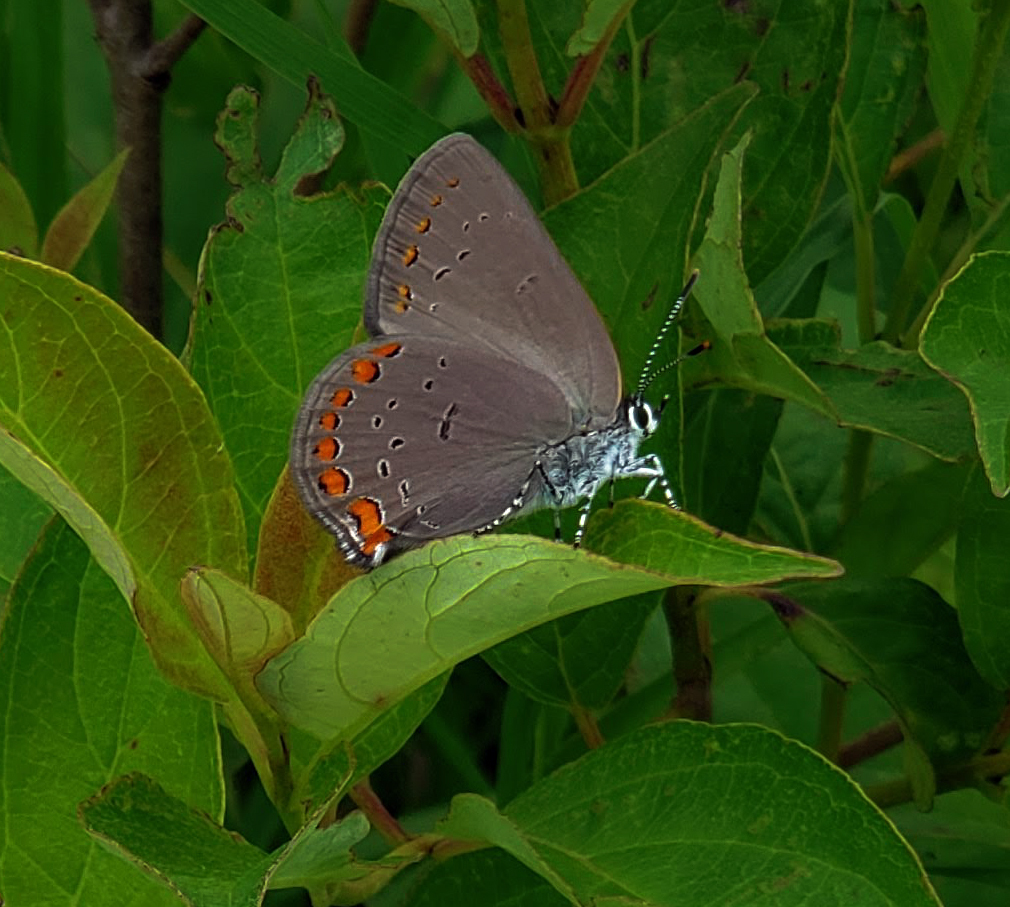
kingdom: Animalia
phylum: Arthropoda
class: Insecta
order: Lepidoptera
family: Lycaenidae
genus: Harkenclenus
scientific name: Harkenclenus titus
